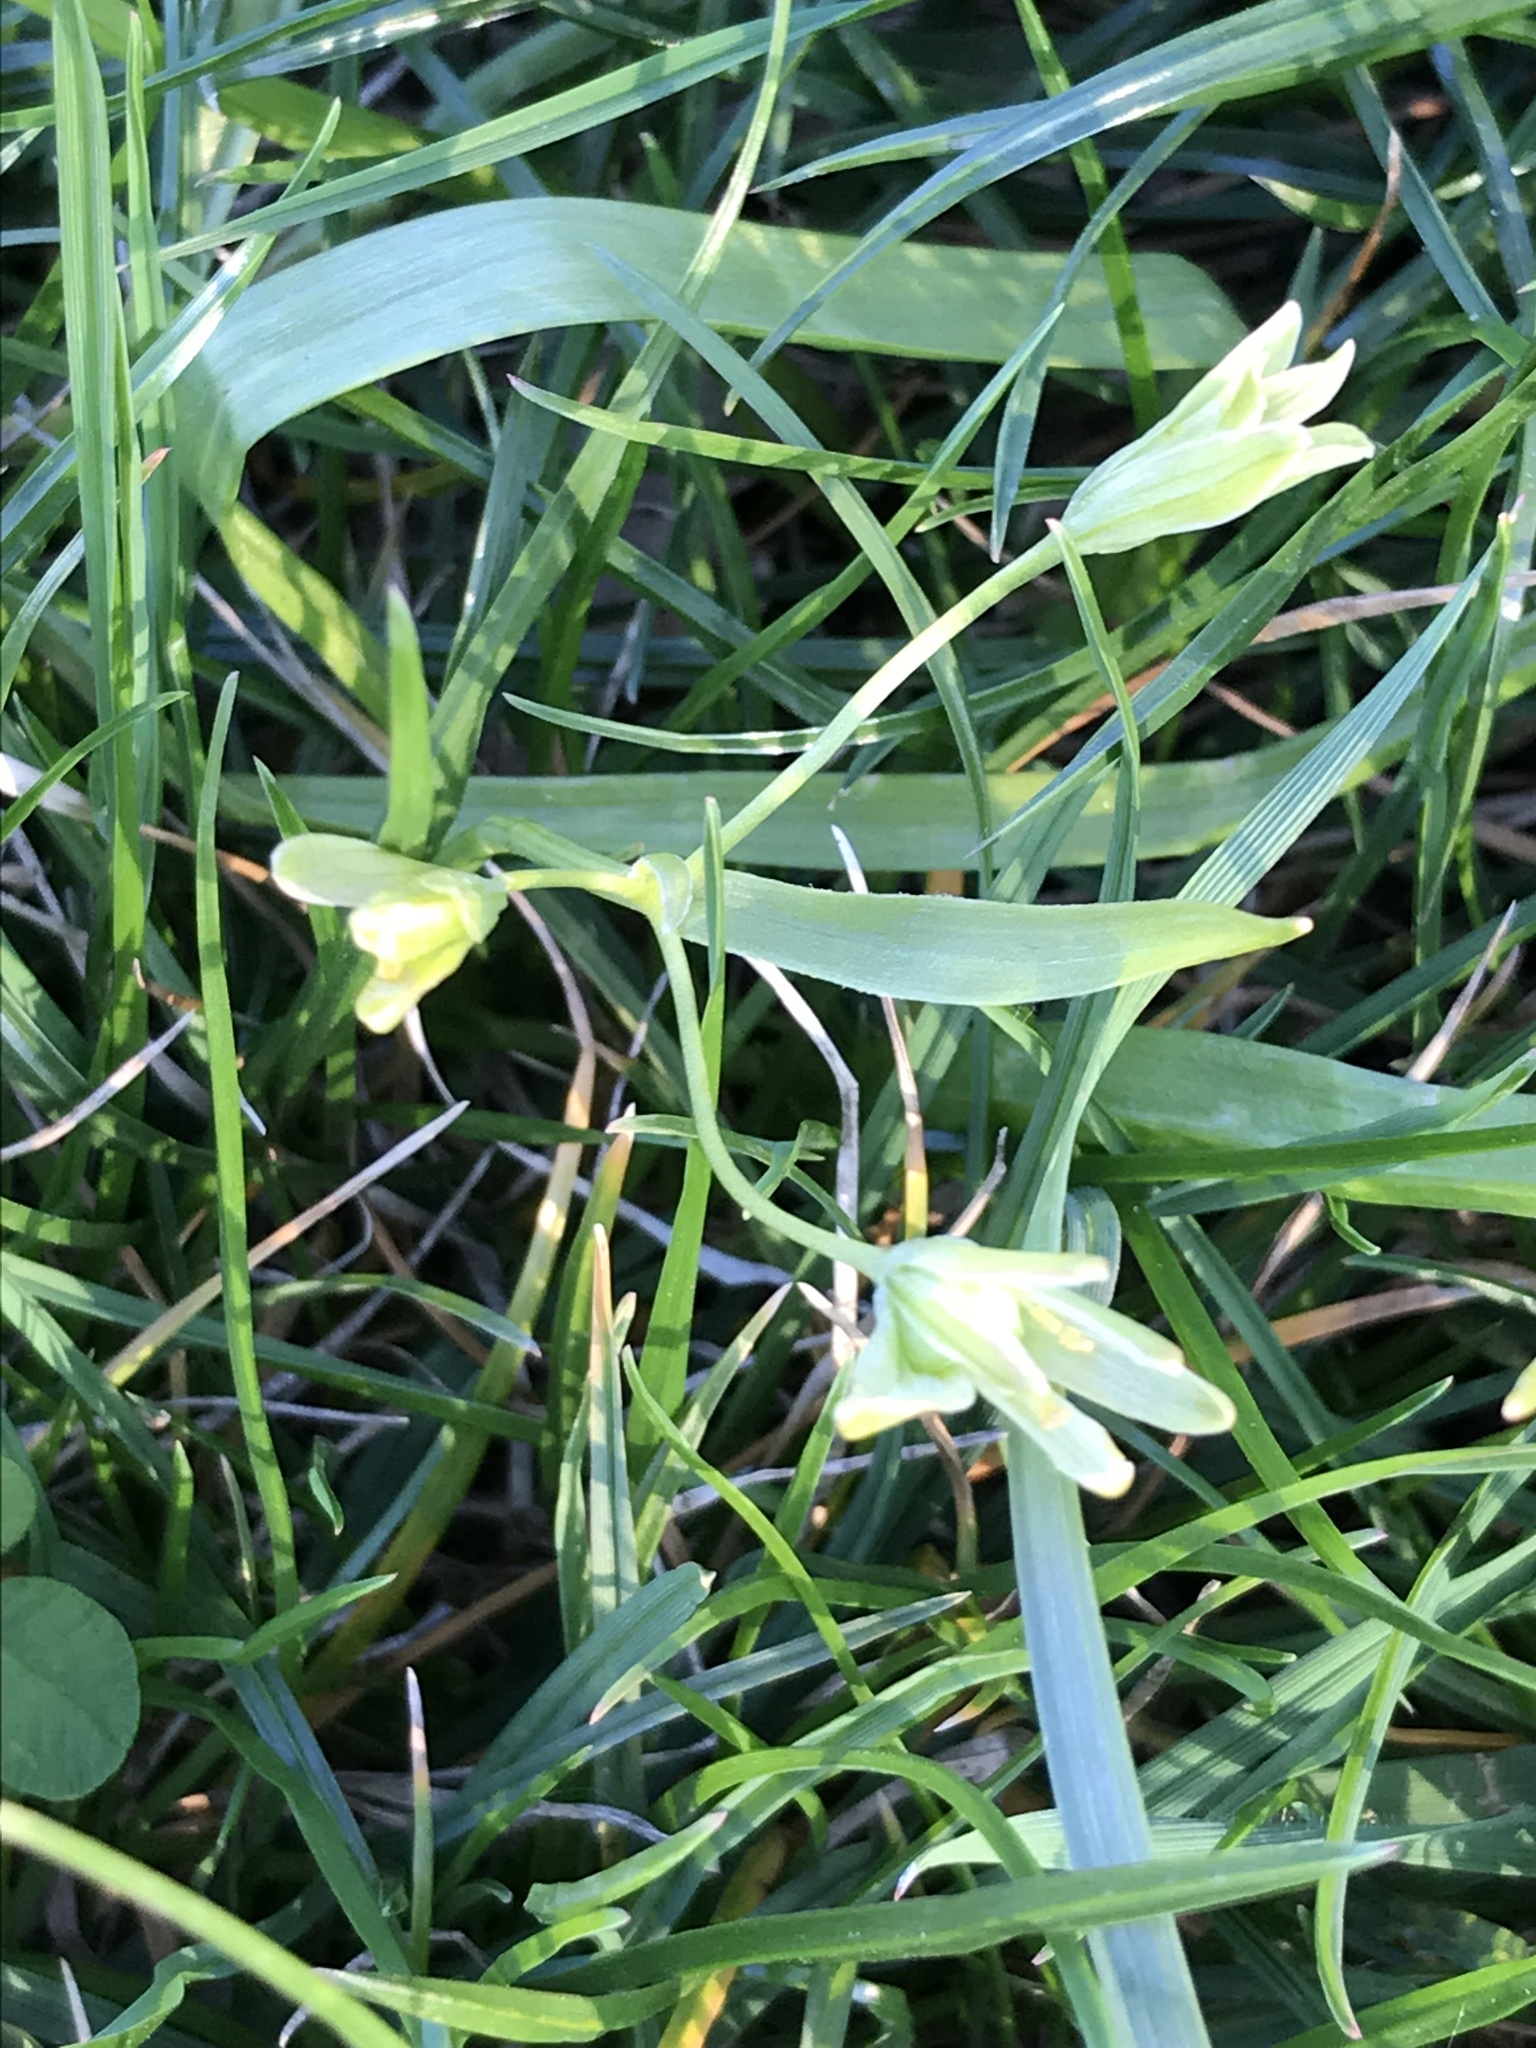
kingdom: Plantae
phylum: Tracheophyta
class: Liliopsida
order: Liliales
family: Liliaceae
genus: Gagea
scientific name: Gagea lutea
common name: Yellow star-of-bethlehem
